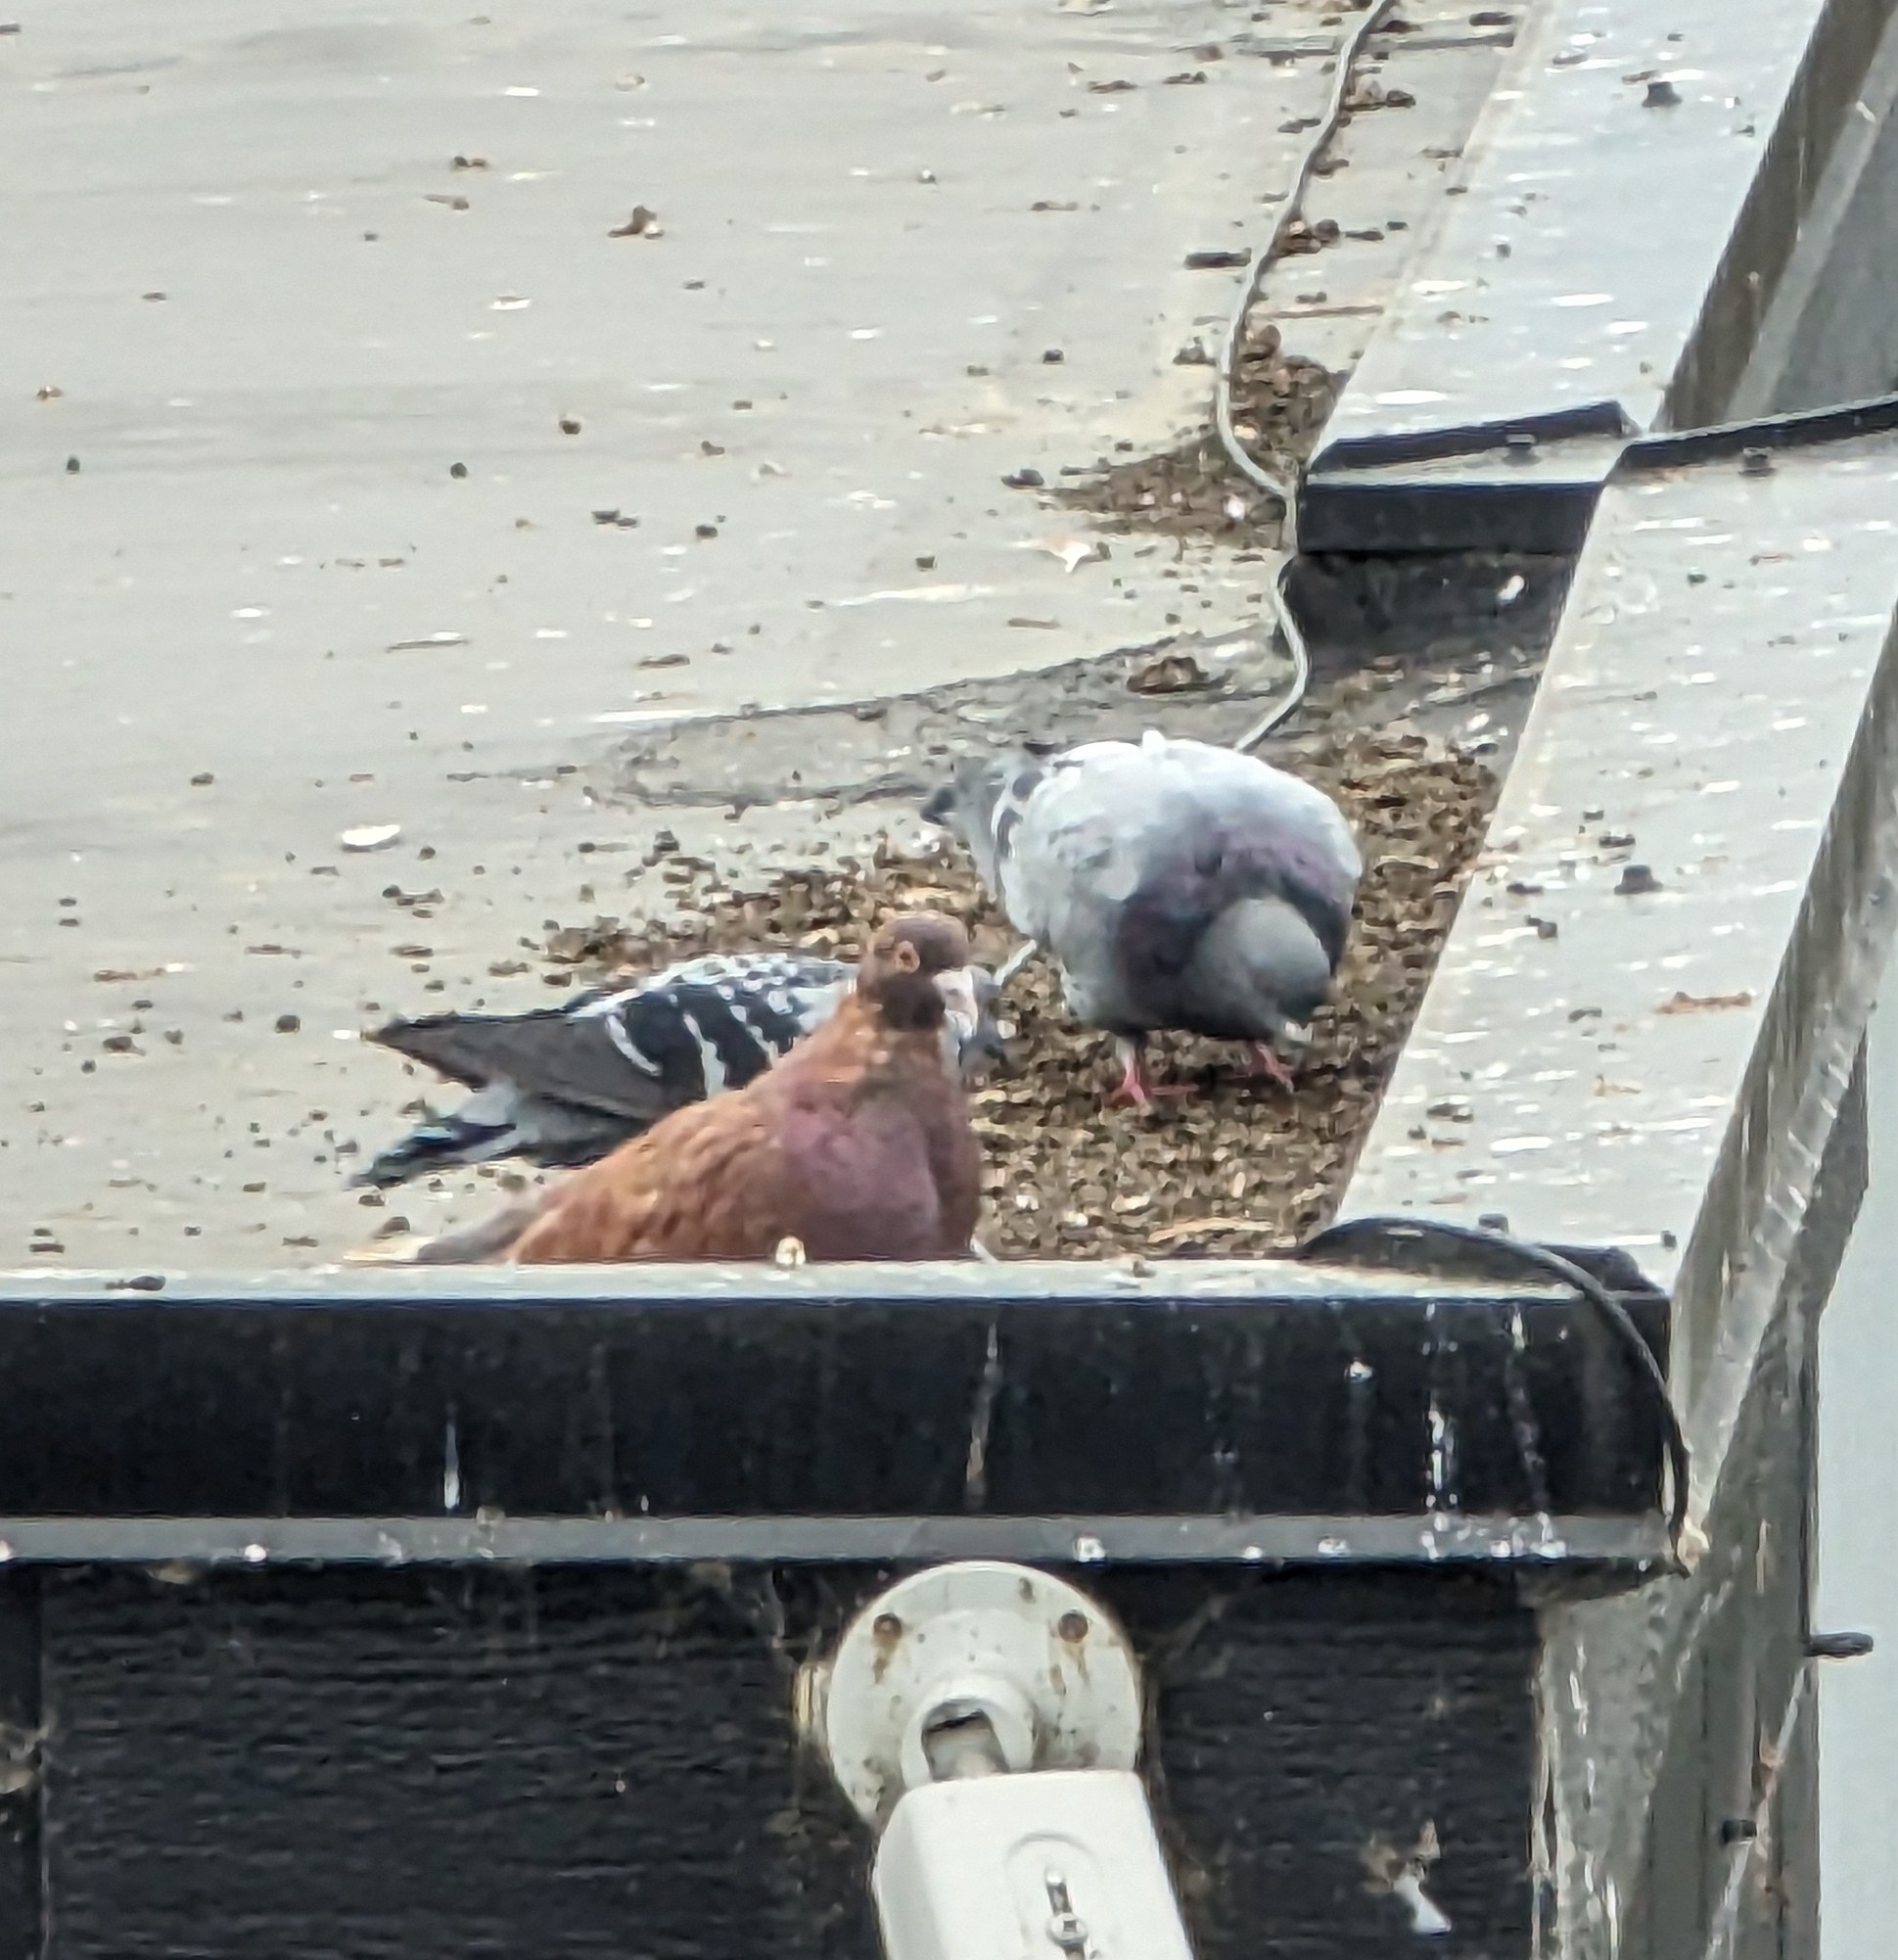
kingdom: Animalia
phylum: Chordata
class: Aves
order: Columbiformes
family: Columbidae
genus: Columba
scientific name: Columba livia
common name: Rock pigeon
